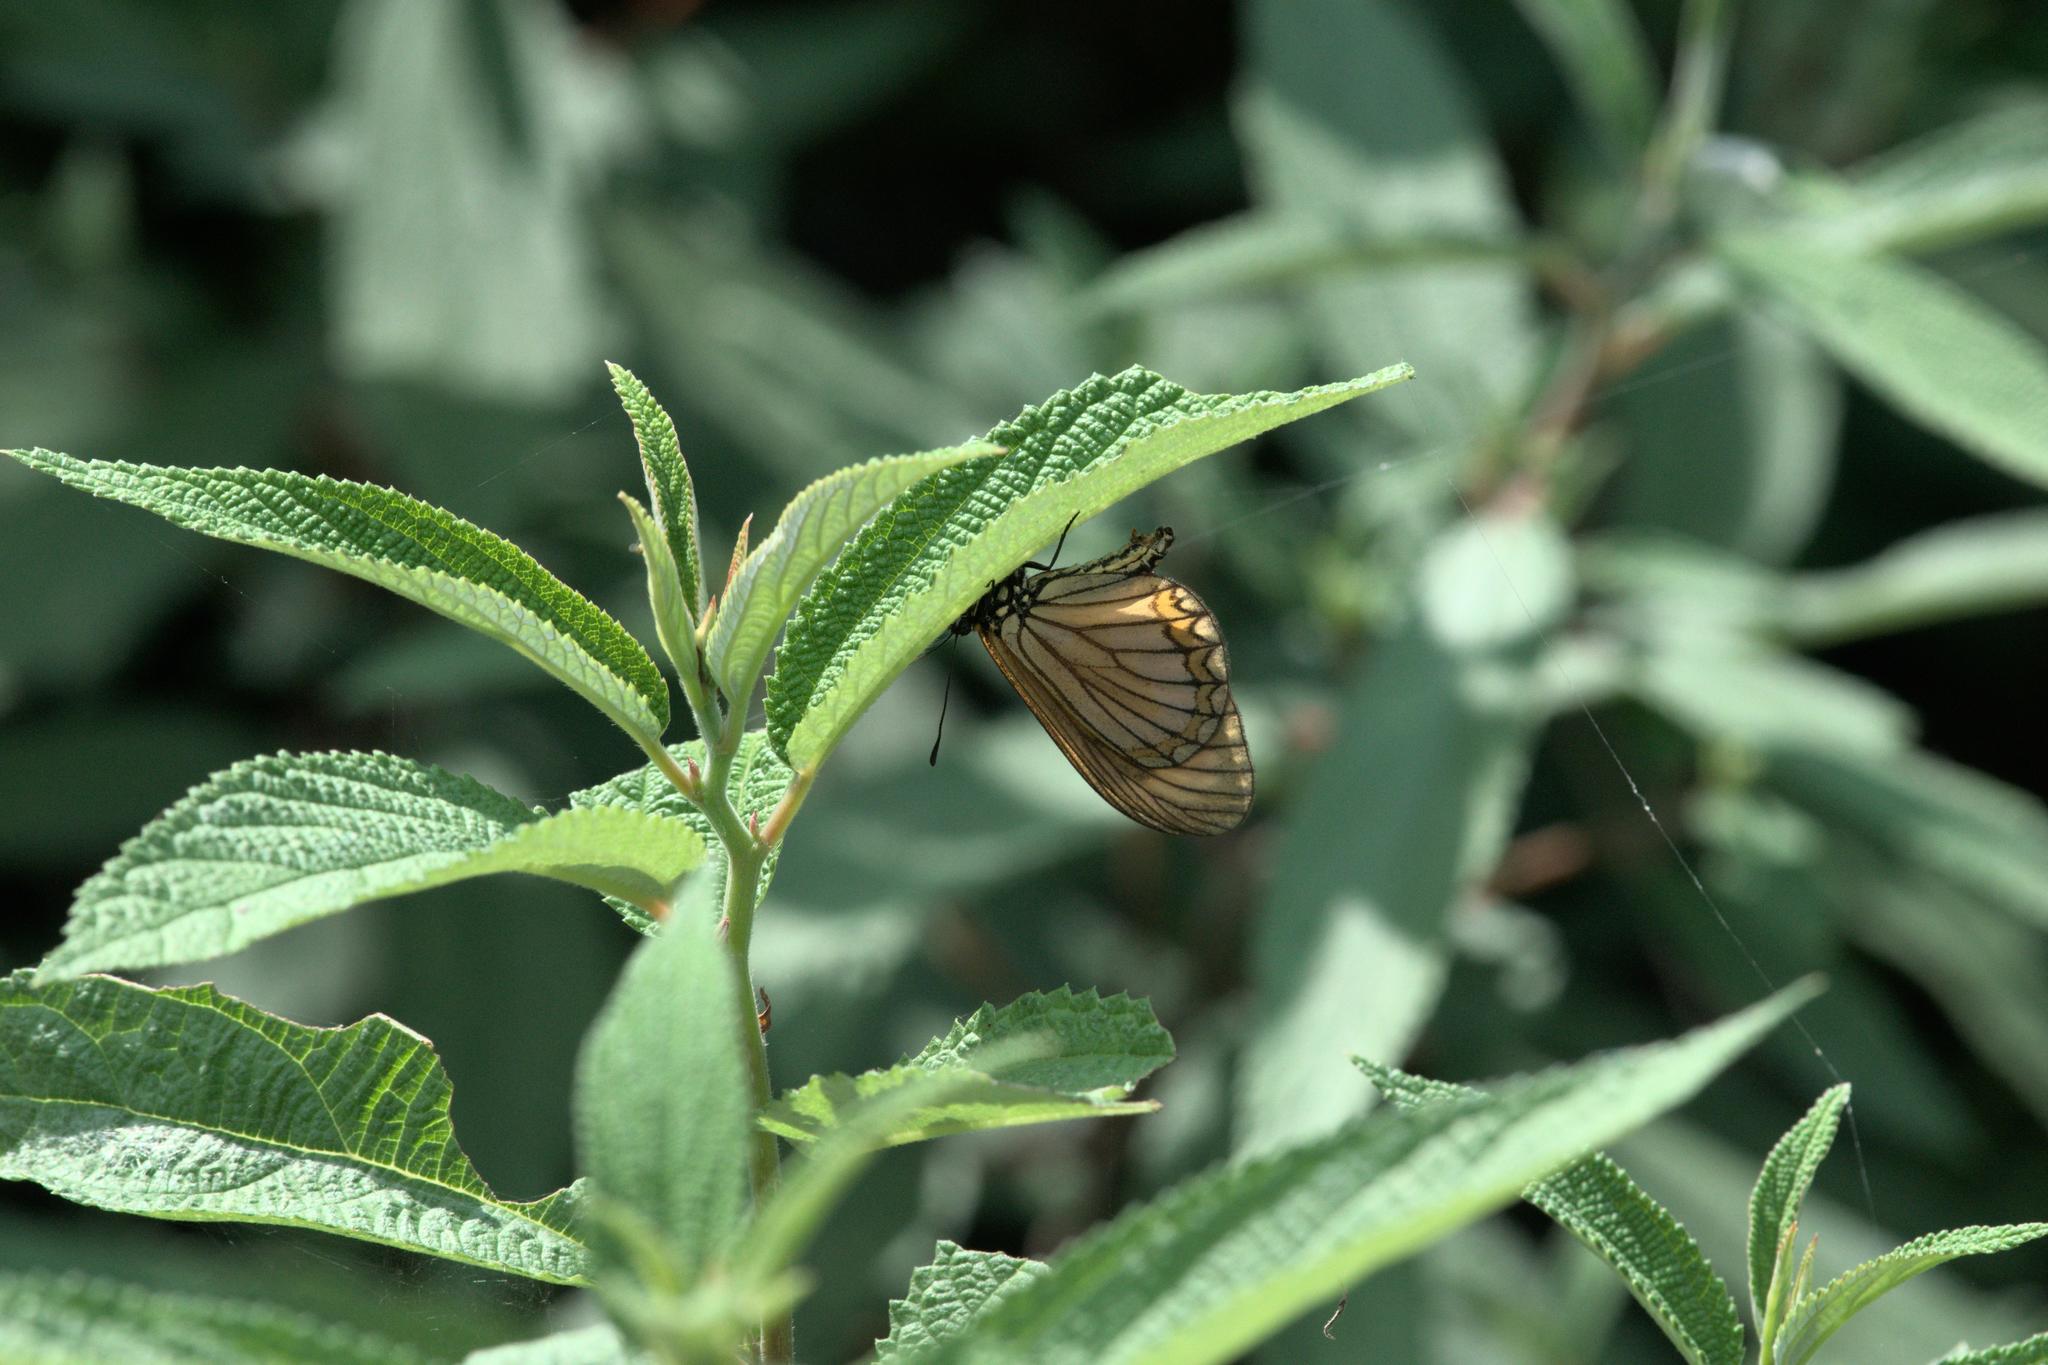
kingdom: Animalia
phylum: Arthropoda
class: Insecta
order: Lepidoptera
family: Nymphalidae
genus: Acraea
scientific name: Acraea Telchinia issoria
